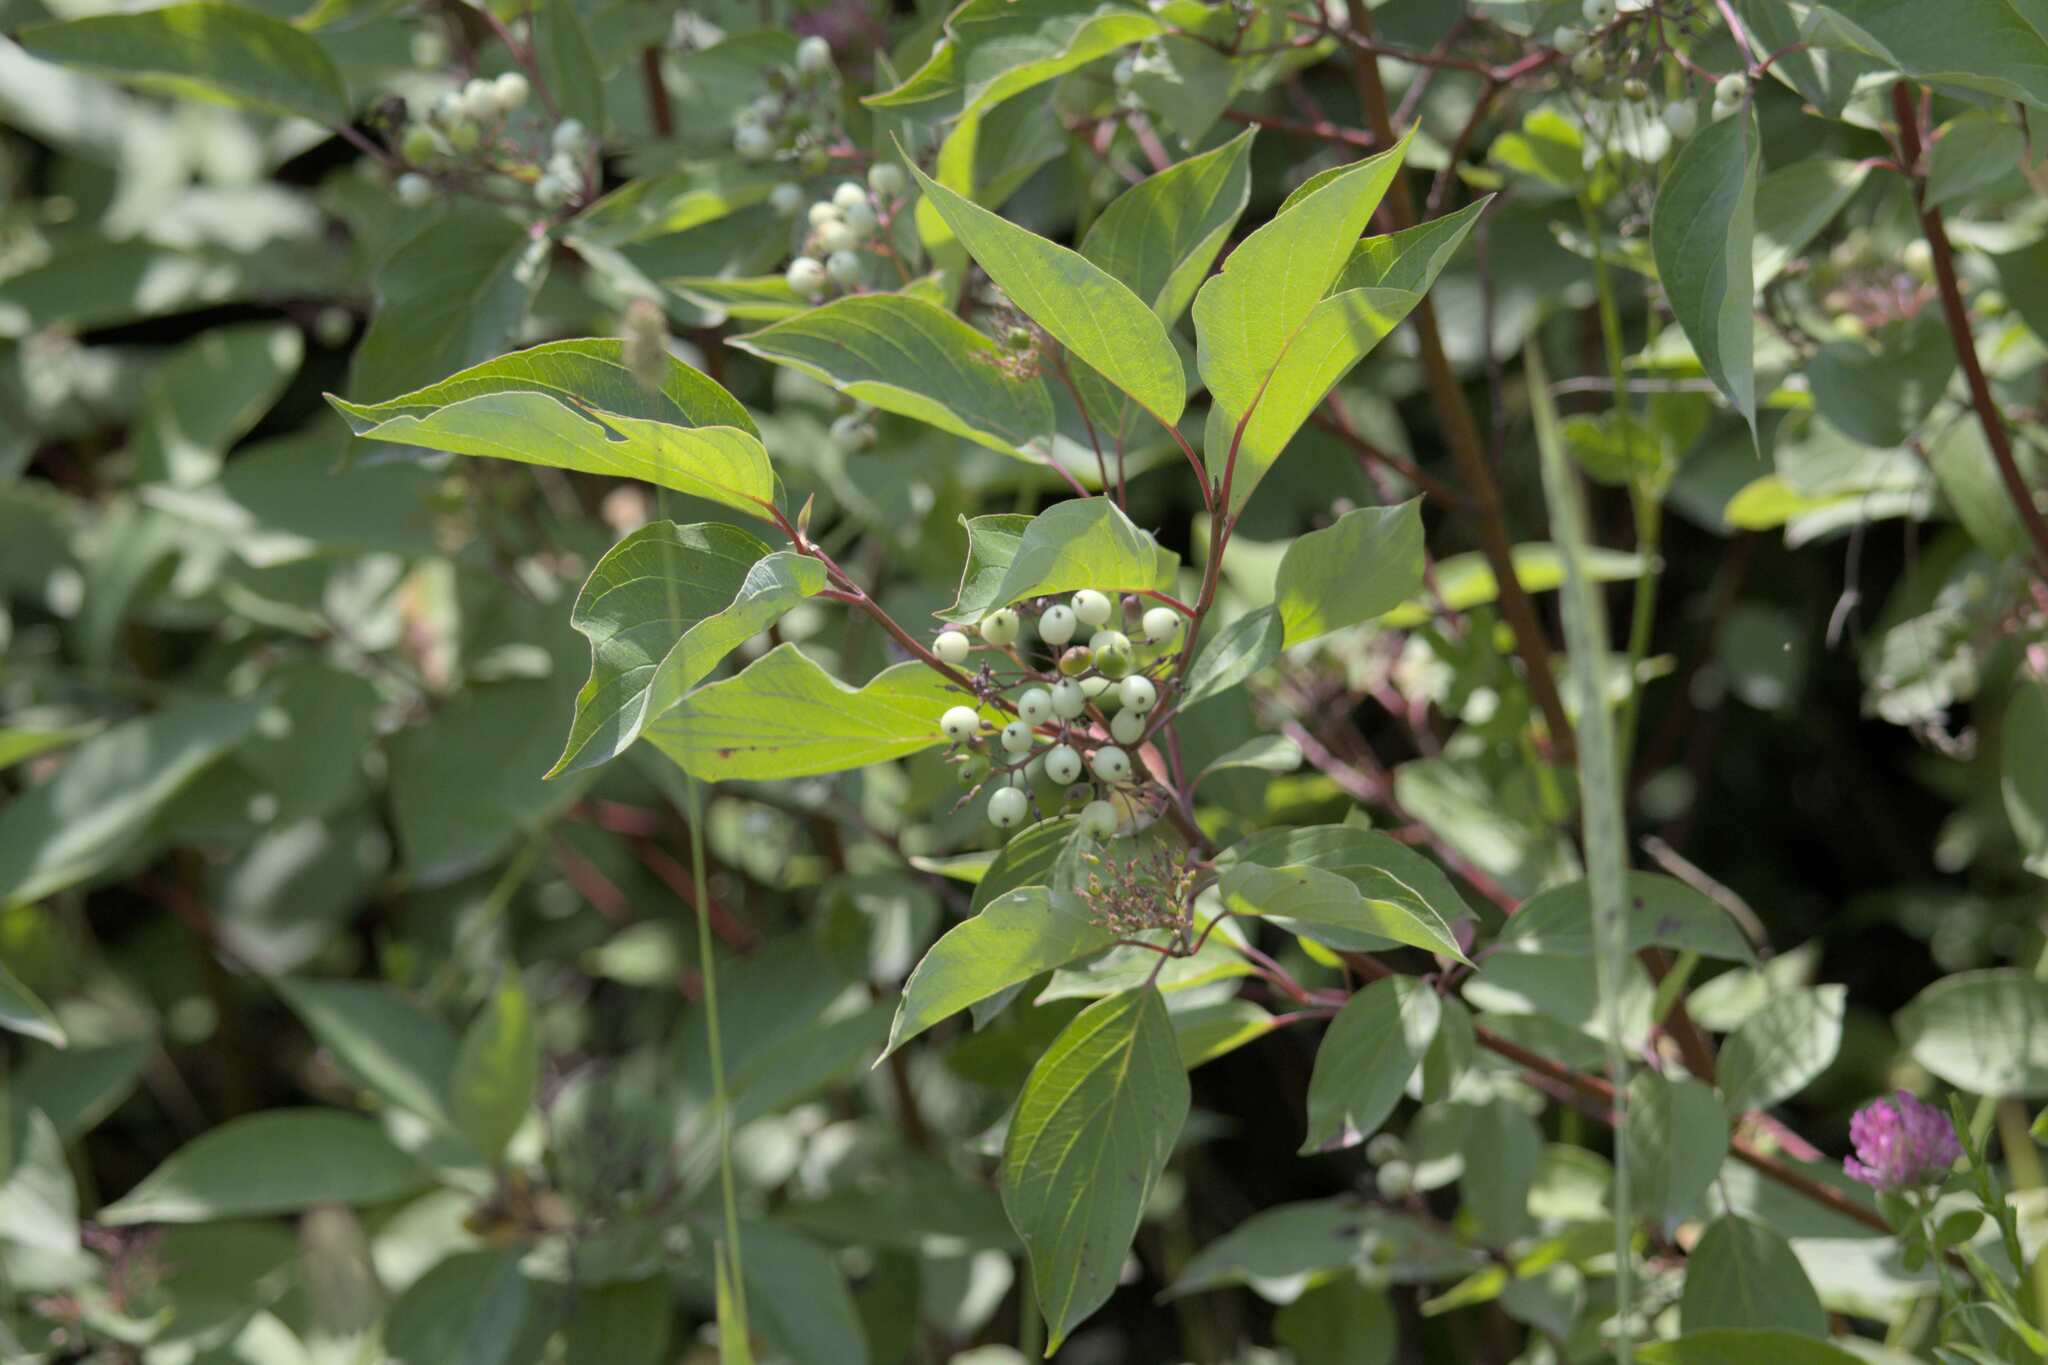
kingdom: Plantae
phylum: Tracheophyta
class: Magnoliopsida
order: Cornales
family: Cornaceae
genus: Cornus
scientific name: Cornus sericea
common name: Red-osier dogwood
